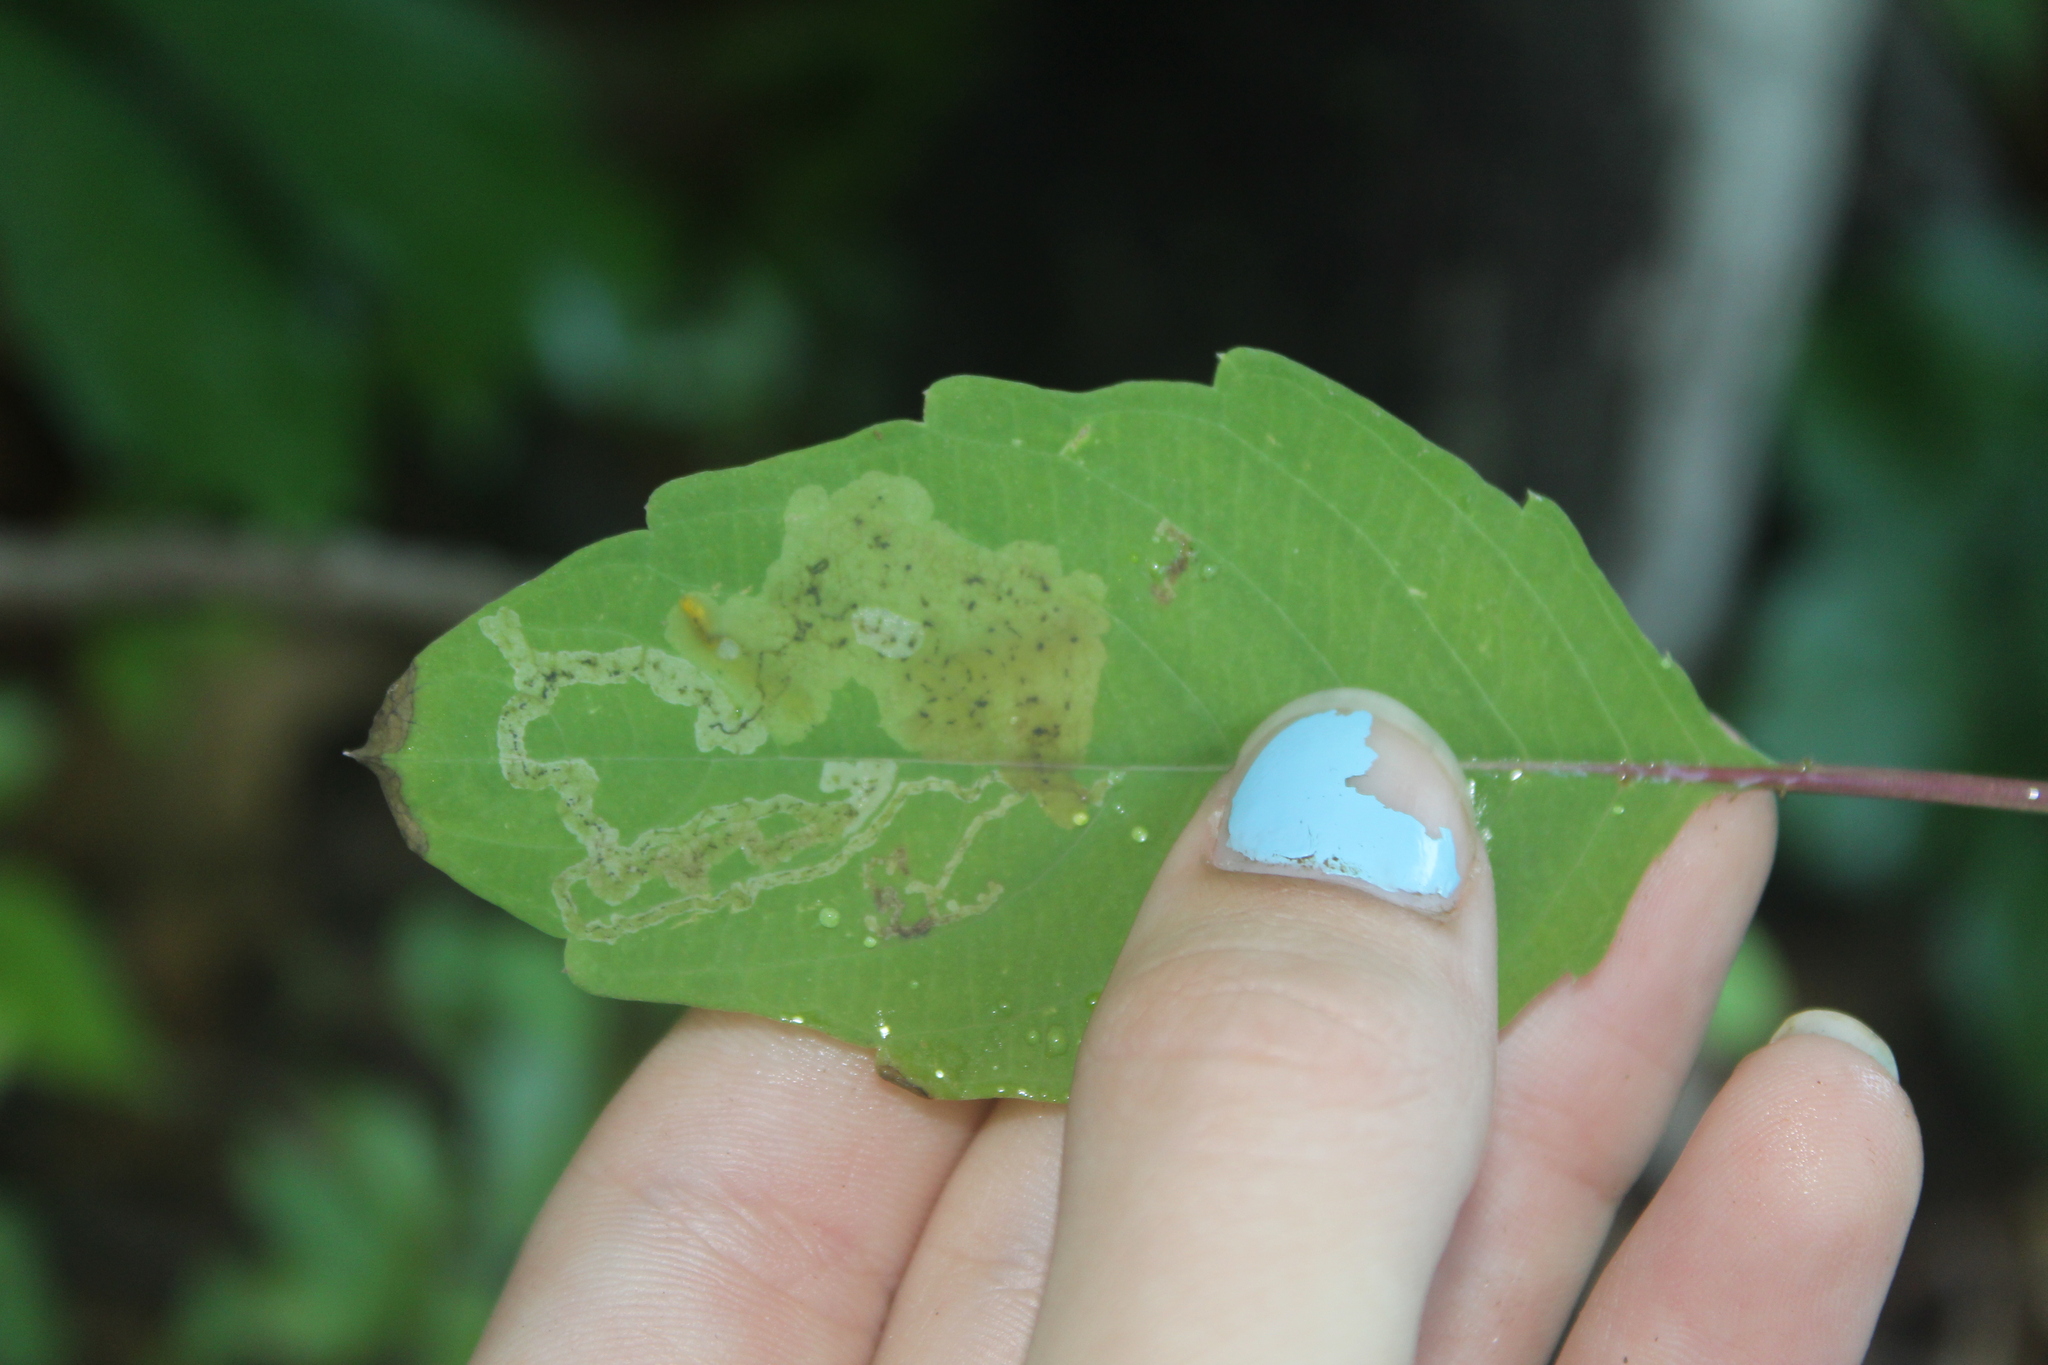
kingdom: Animalia
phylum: Arthropoda
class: Insecta
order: Diptera
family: Agromyzidae
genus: Phytoliriomyza
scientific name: Phytoliriomyza melampyga
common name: Jewelweed leaf-miner fly
